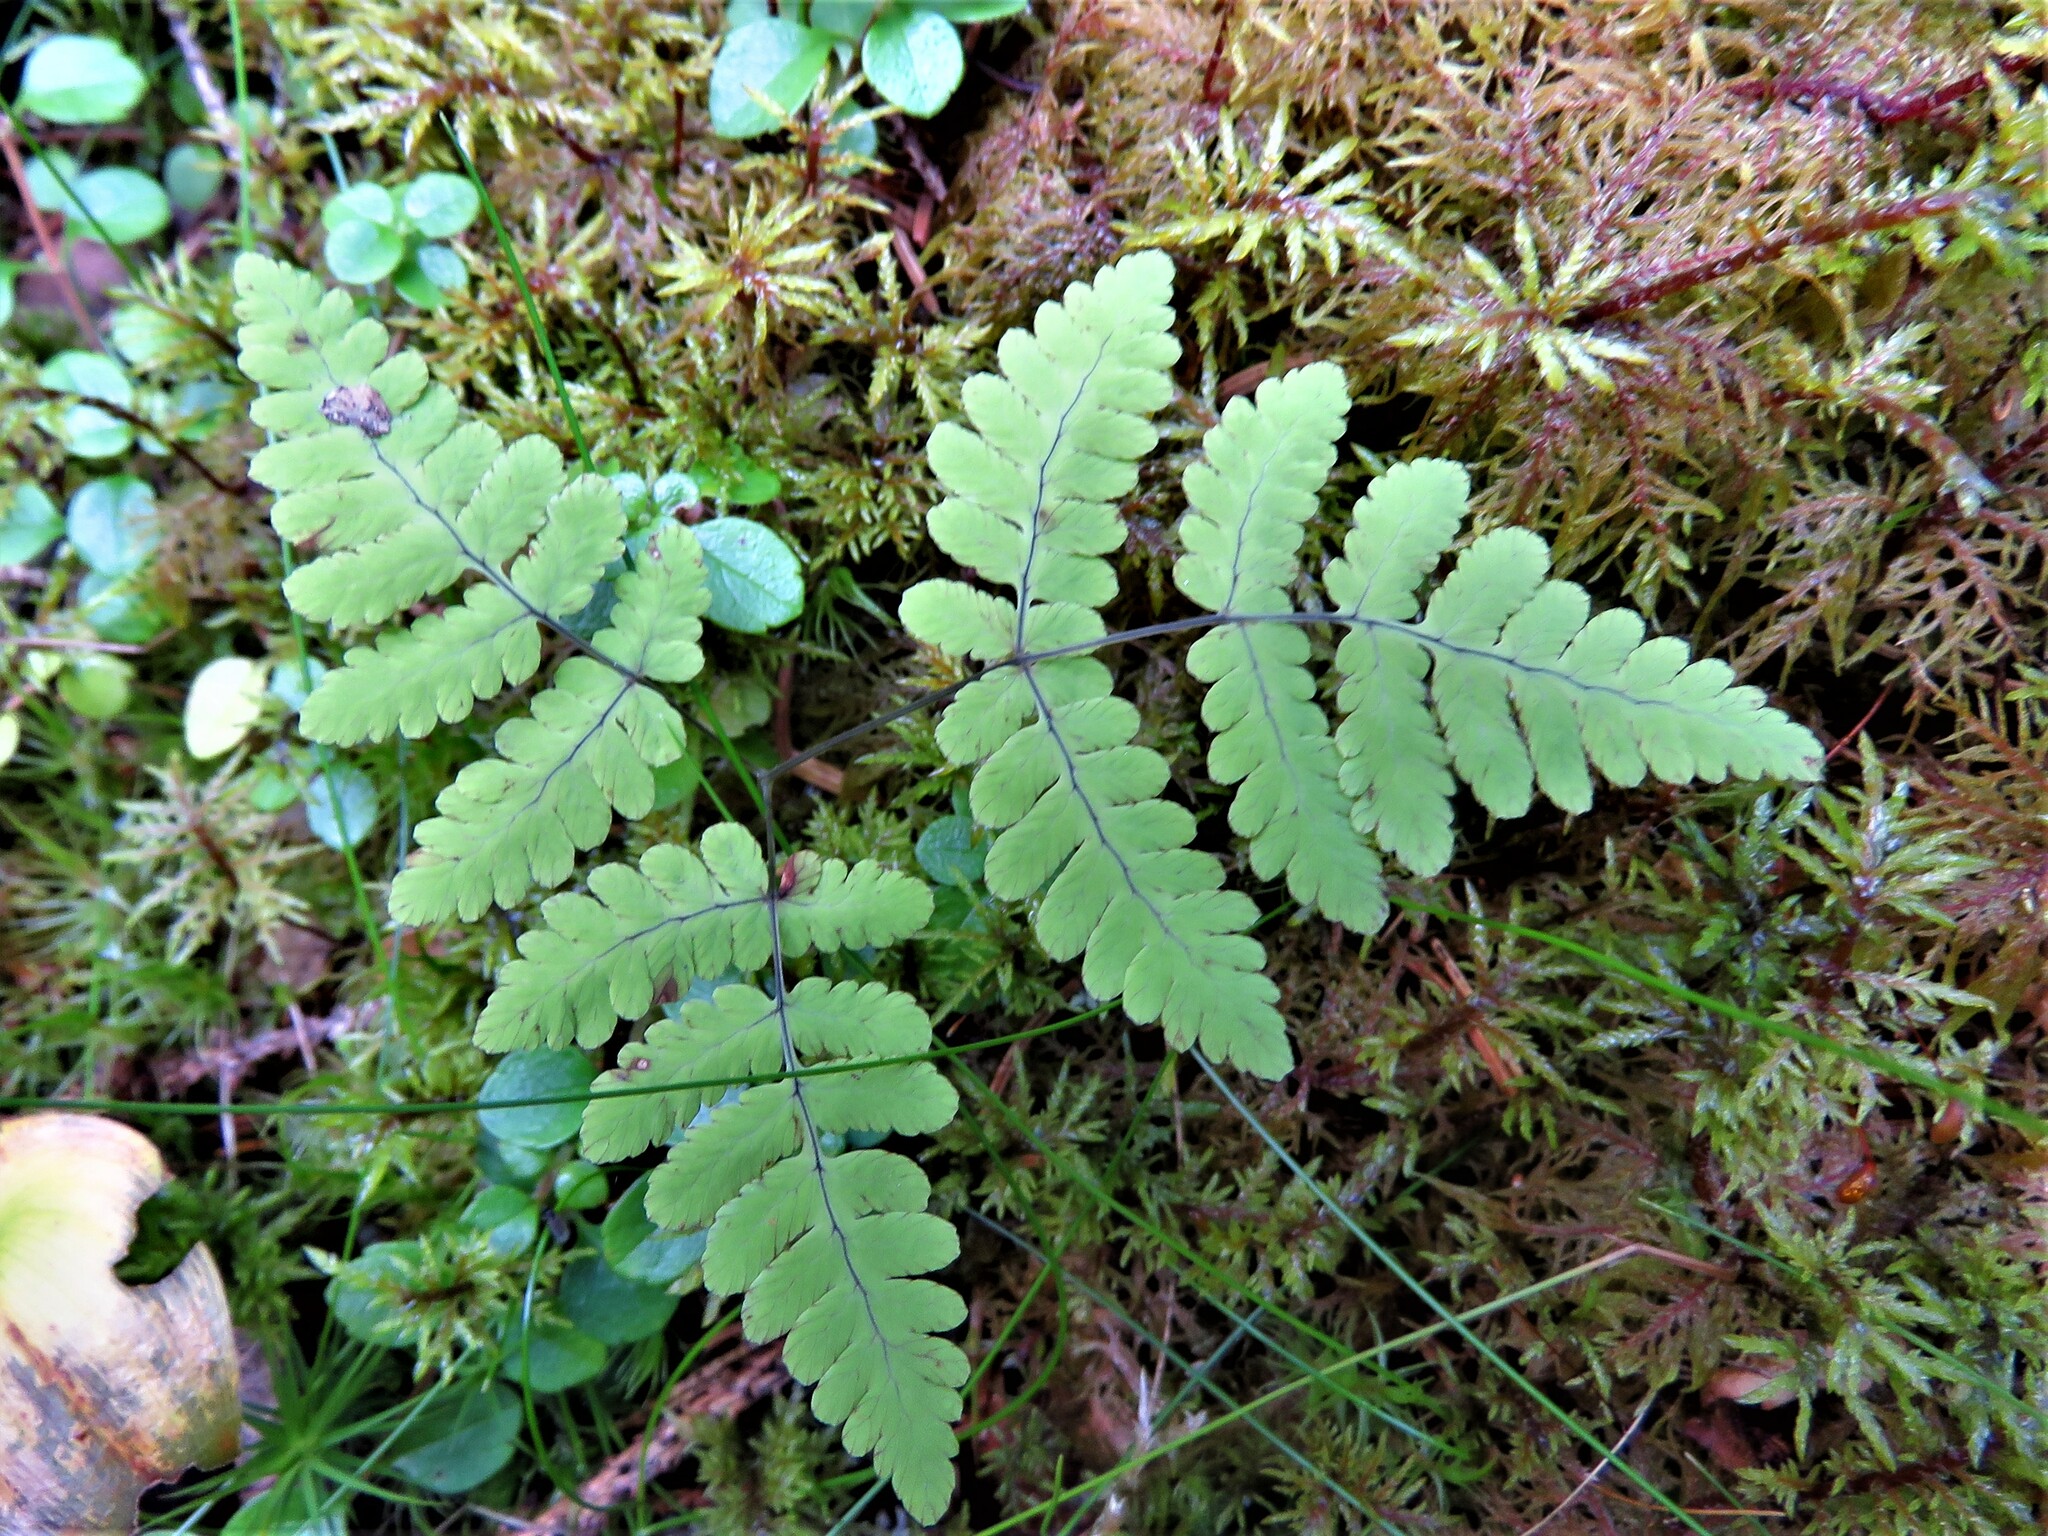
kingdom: Plantae
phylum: Tracheophyta
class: Polypodiopsida
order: Polypodiales
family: Cystopteridaceae
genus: Gymnocarpium
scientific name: Gymnocarpium dryopteris
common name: Oak fern
